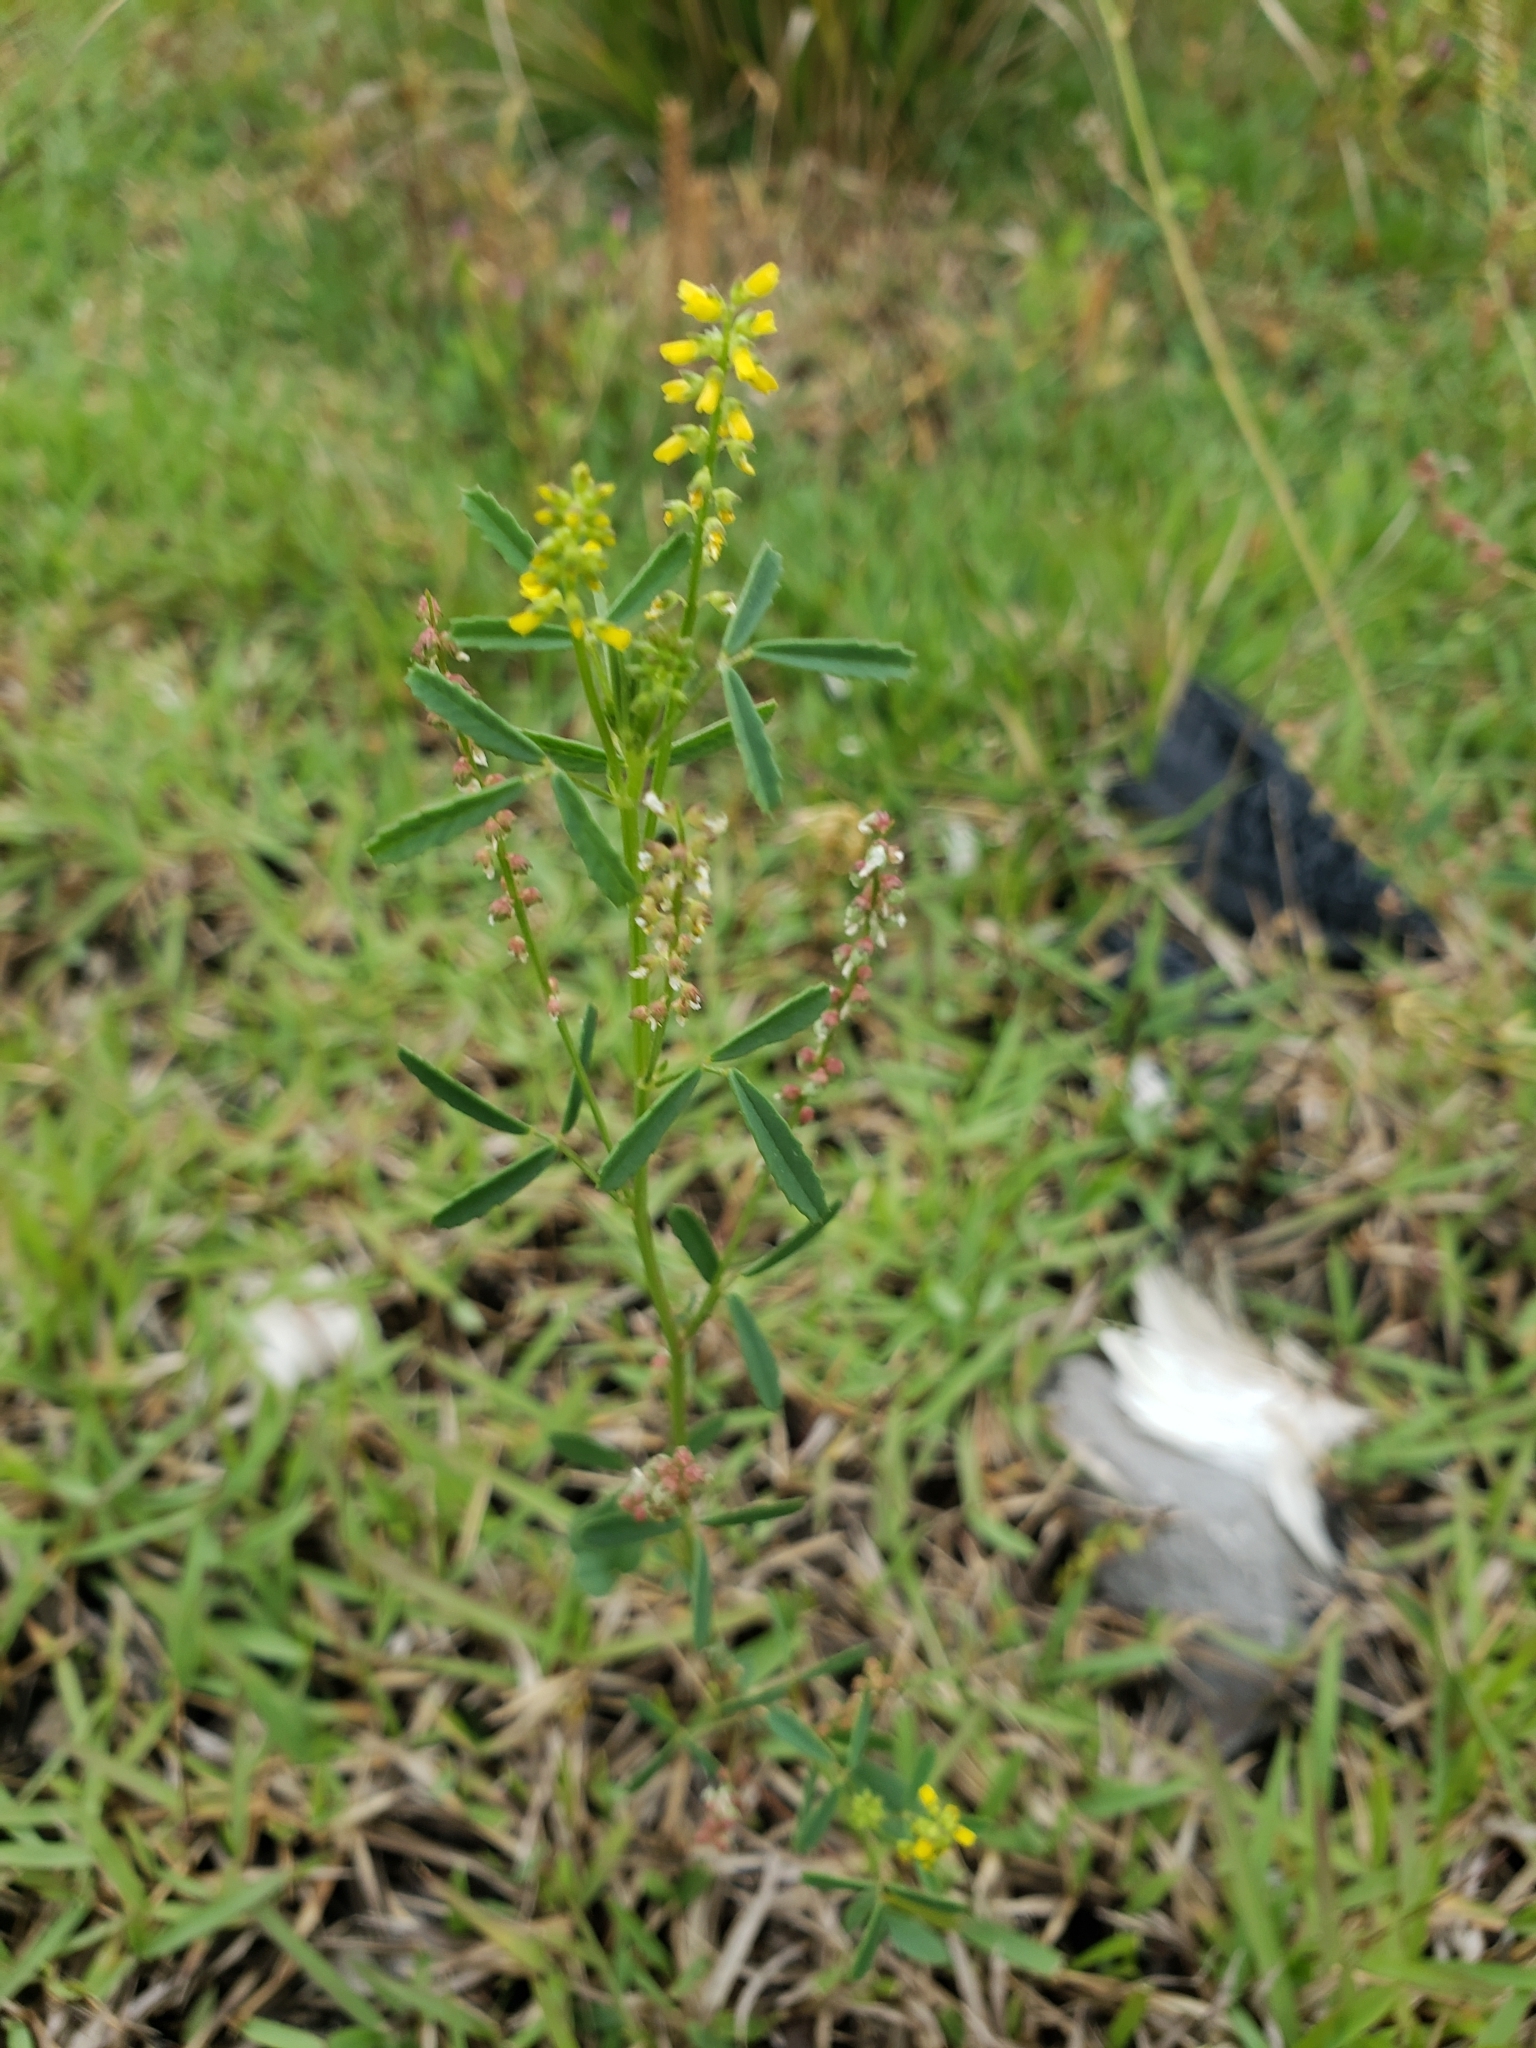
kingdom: Plantae
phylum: Tracheophyta
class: Magnoliopsida
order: Fabales
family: Fabaceae
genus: Melilotus
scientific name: Melilotus indicus
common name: Small melilot
